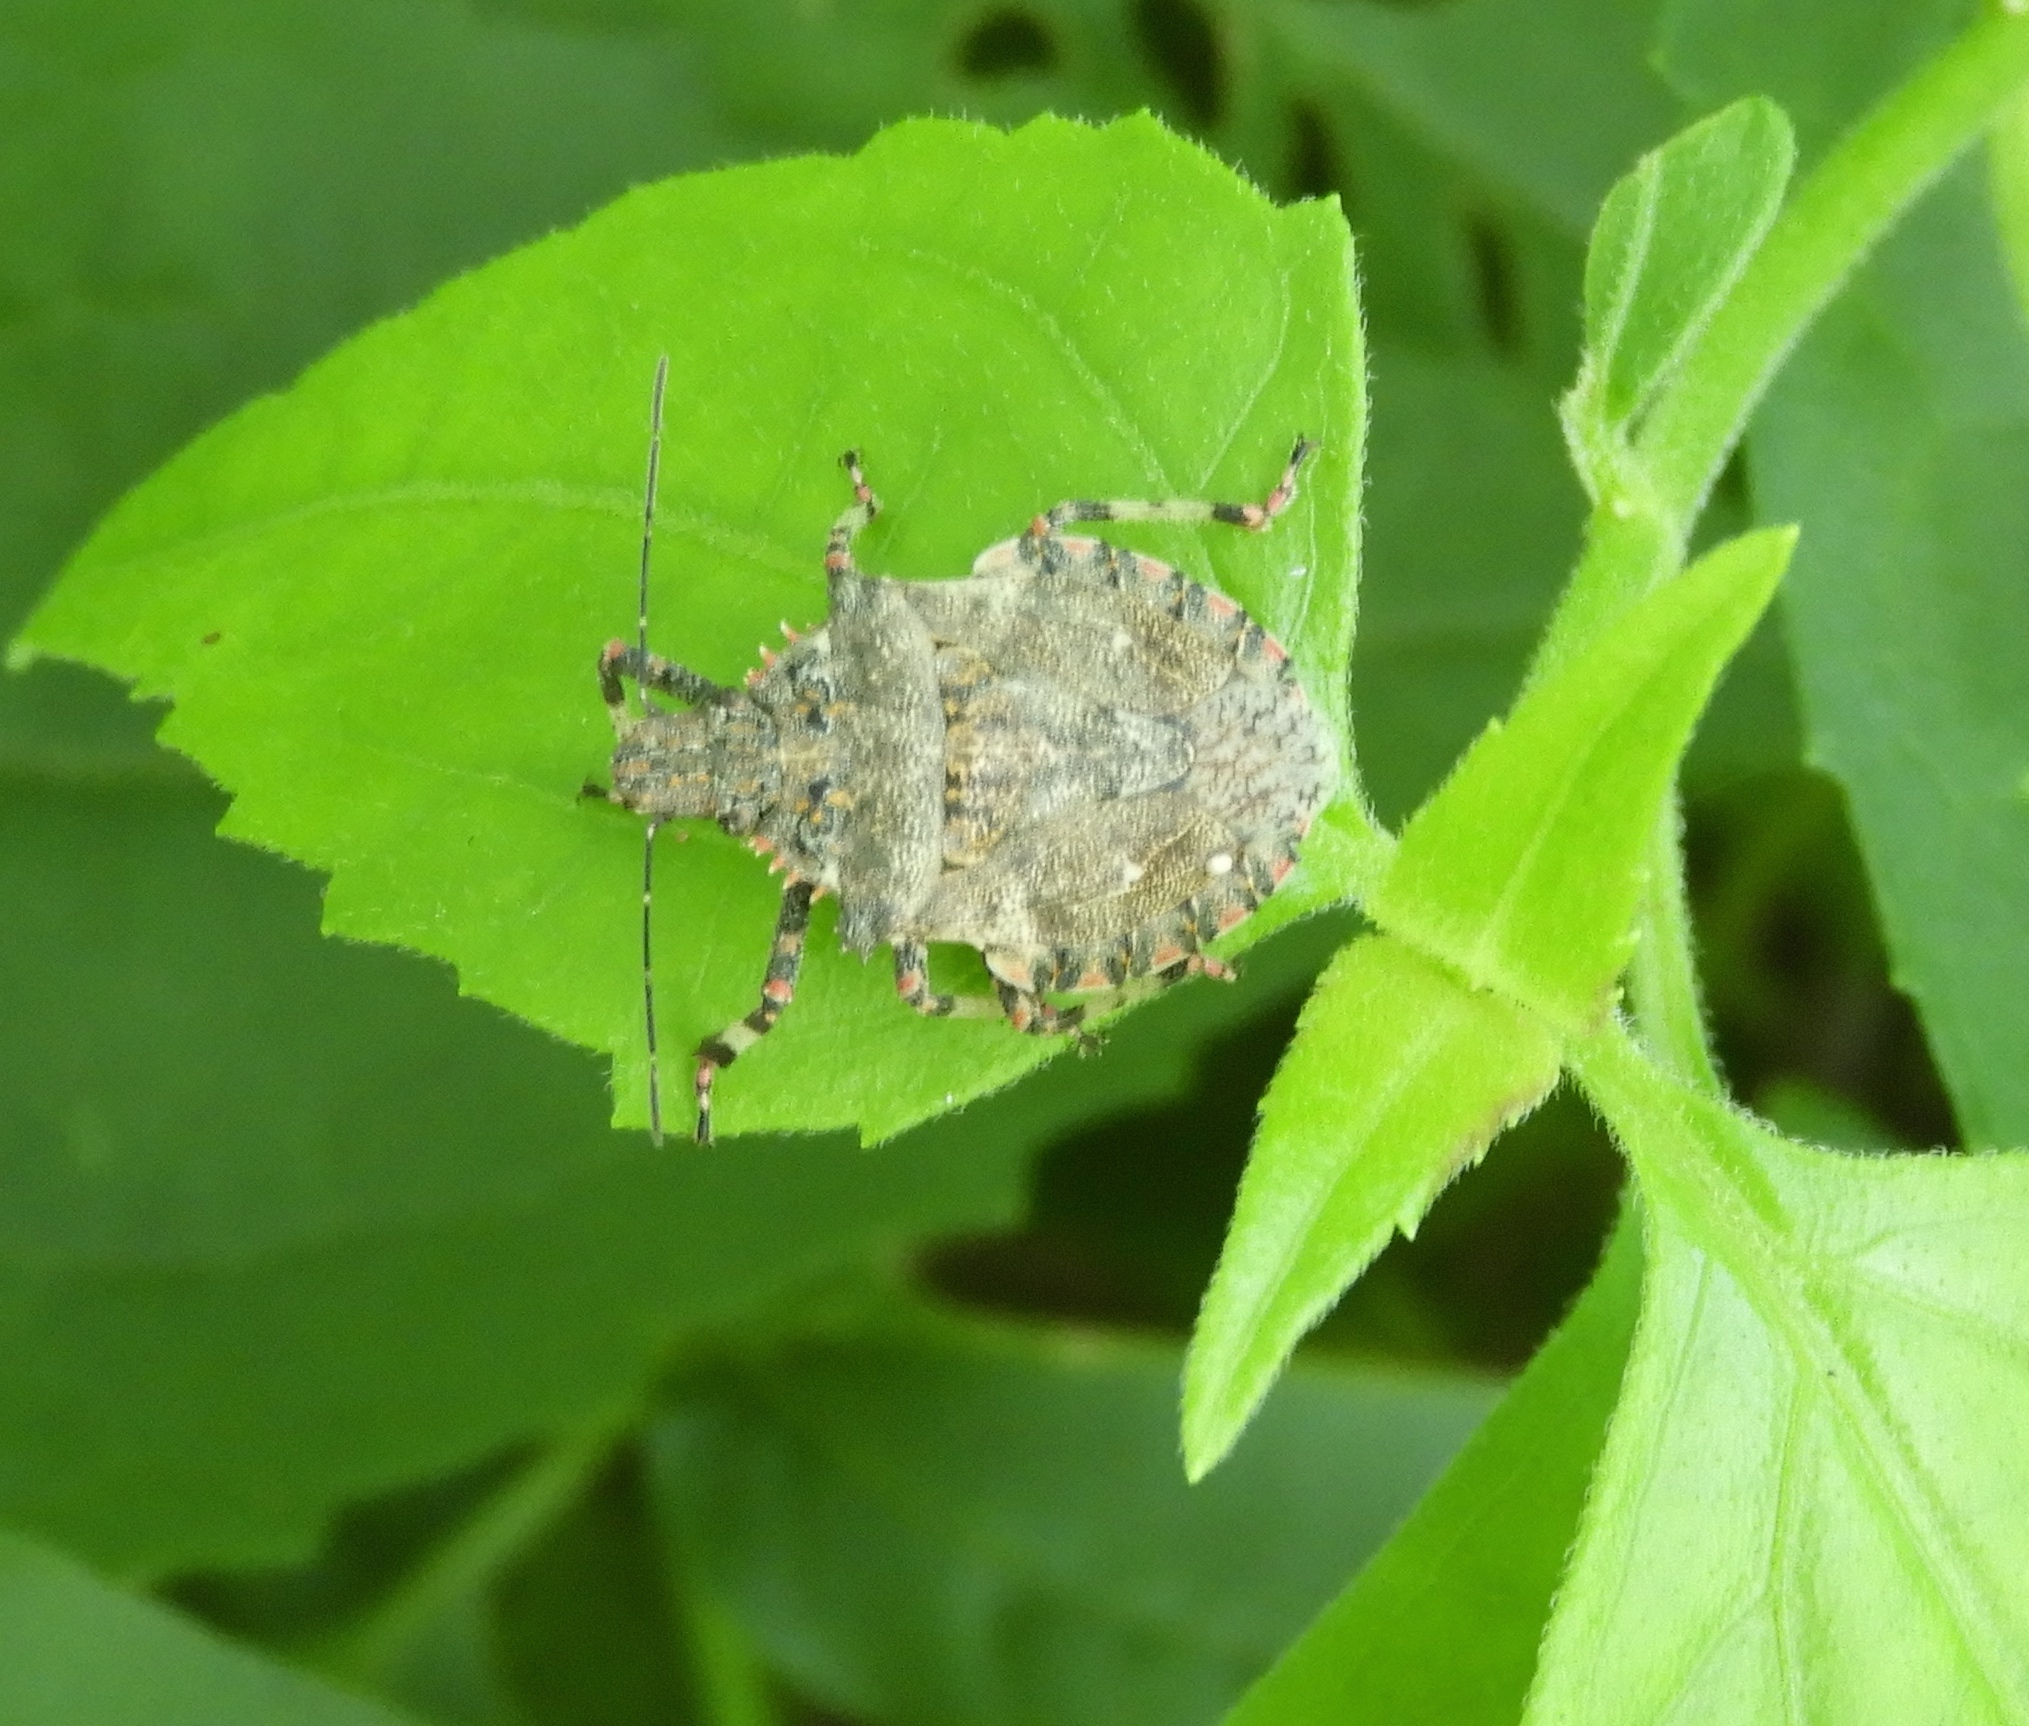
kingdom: Animalia
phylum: Arthropoda
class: Insecta
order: Hemiptera
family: Pentatomidae
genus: Brochymena
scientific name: Brochymena apiculata
